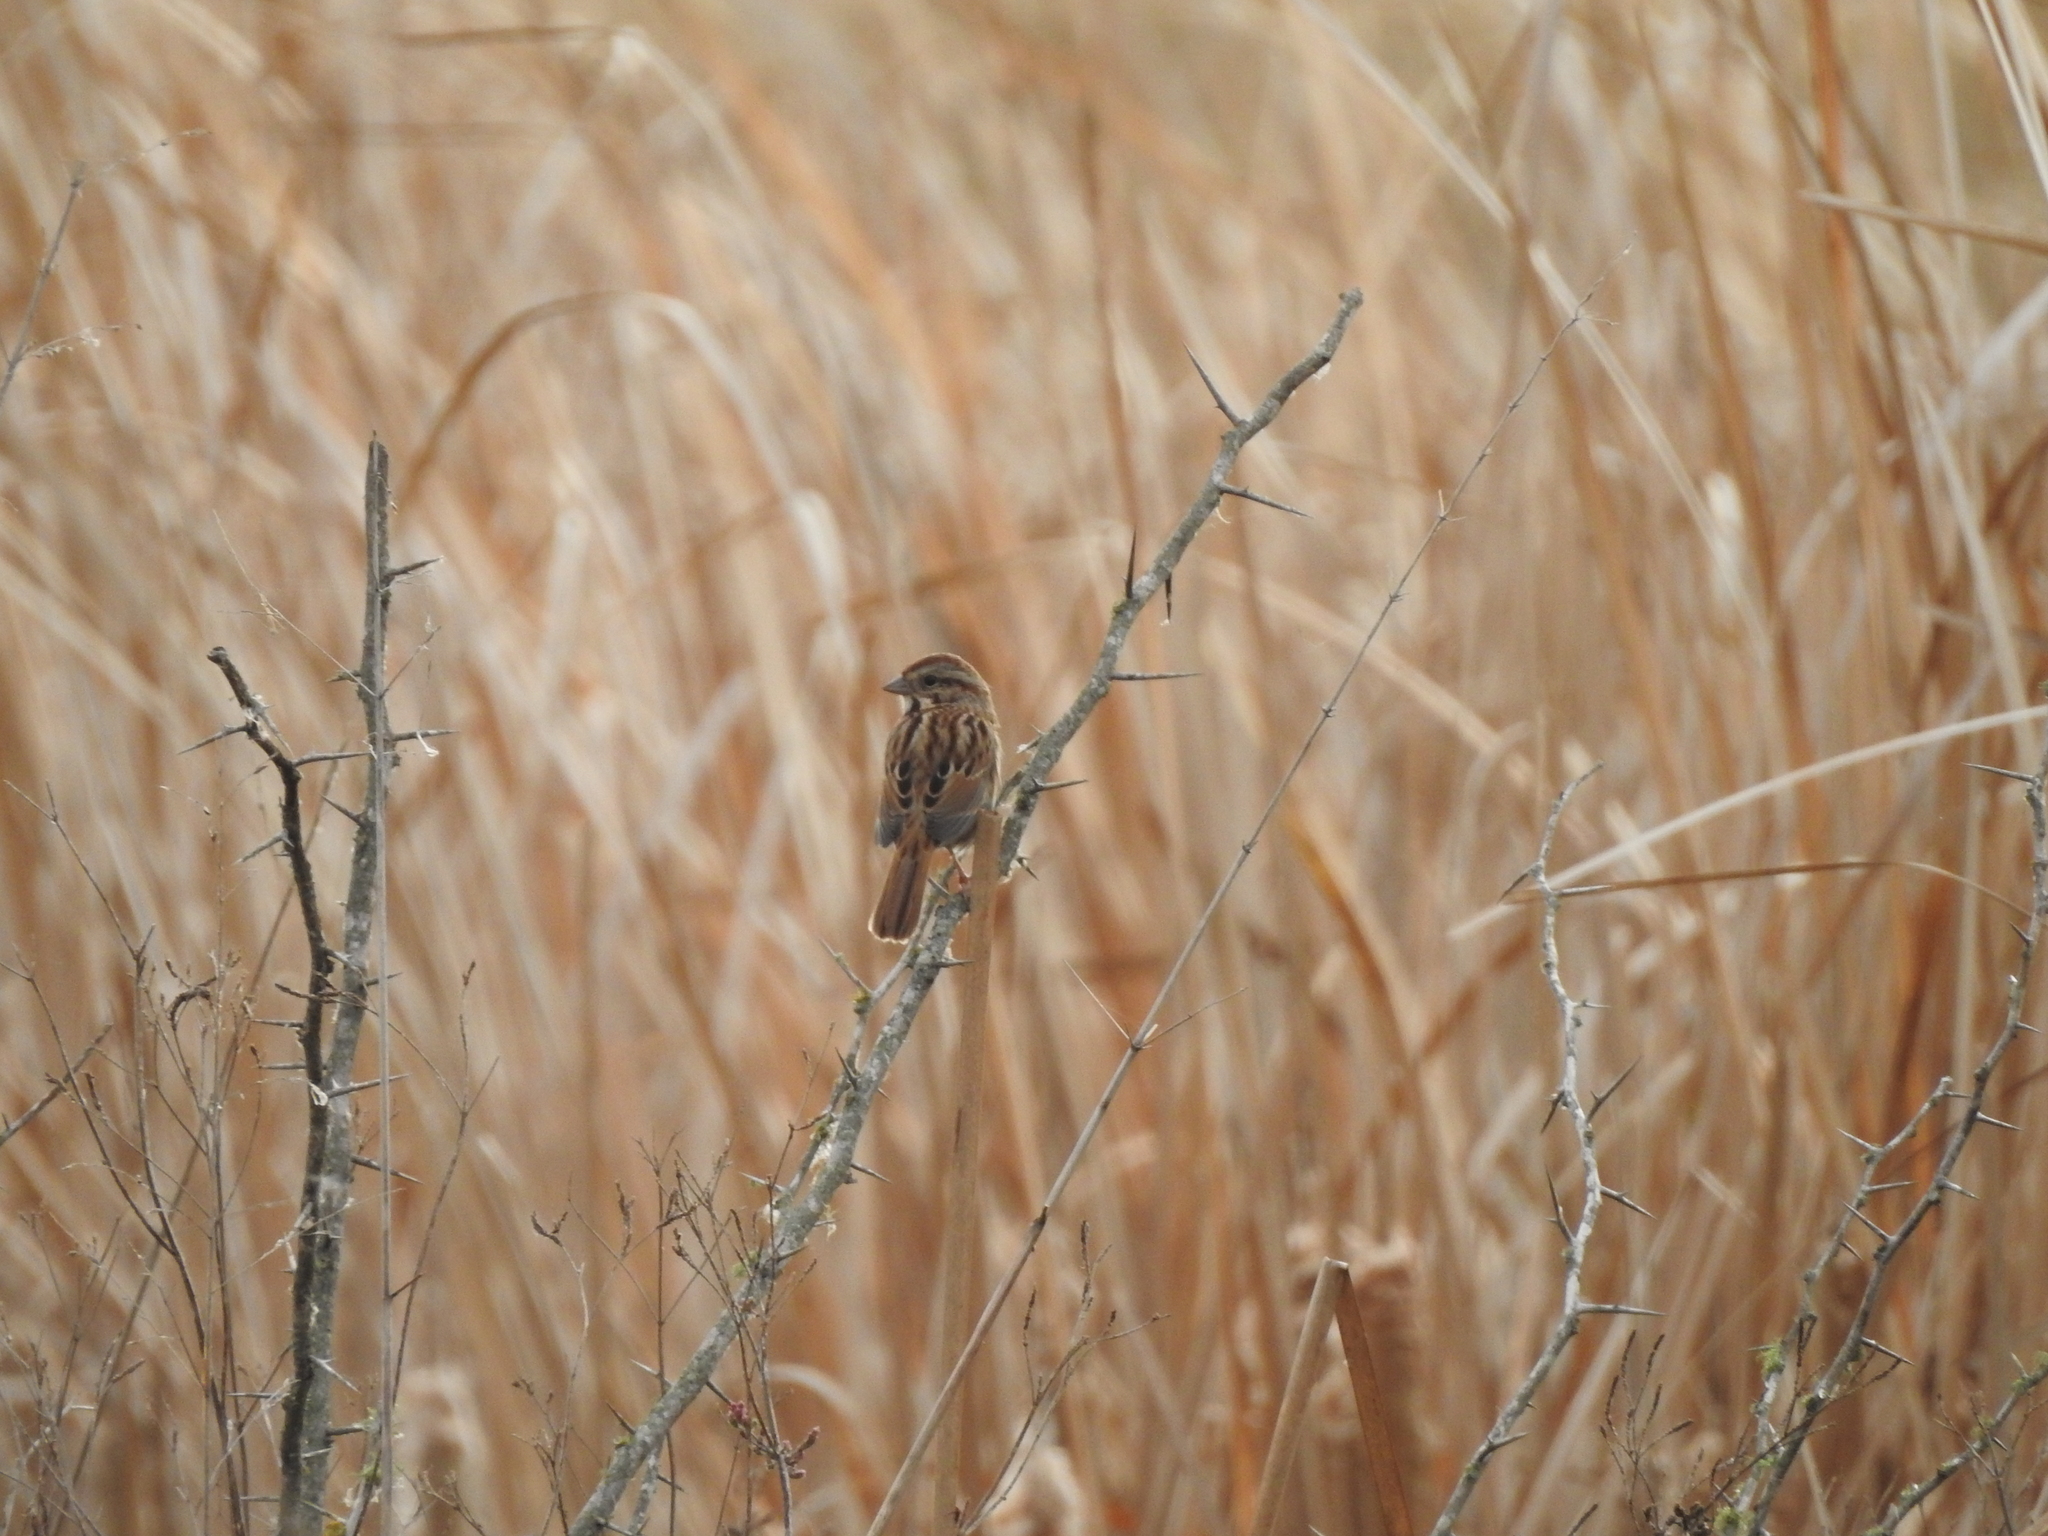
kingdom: Animalia
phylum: Chordata
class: Aves
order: Passeriformes
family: Passerellidae
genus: Melospiza
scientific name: Melospiza melodia
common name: Song sparrow
